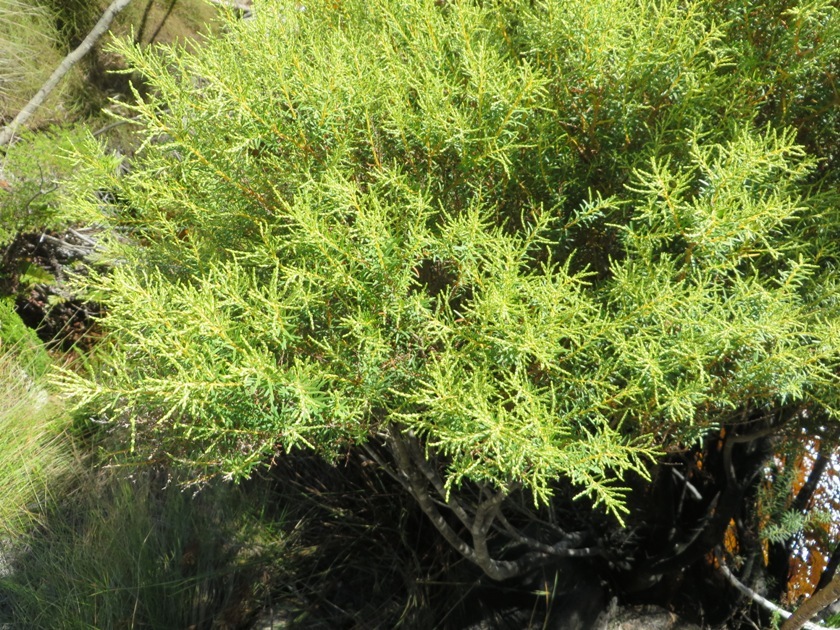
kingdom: Plantae
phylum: Tracheophyta
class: Magnoliopsida
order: Bruniales
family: Bruniaceae
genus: Brunia
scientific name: Brunia africana
